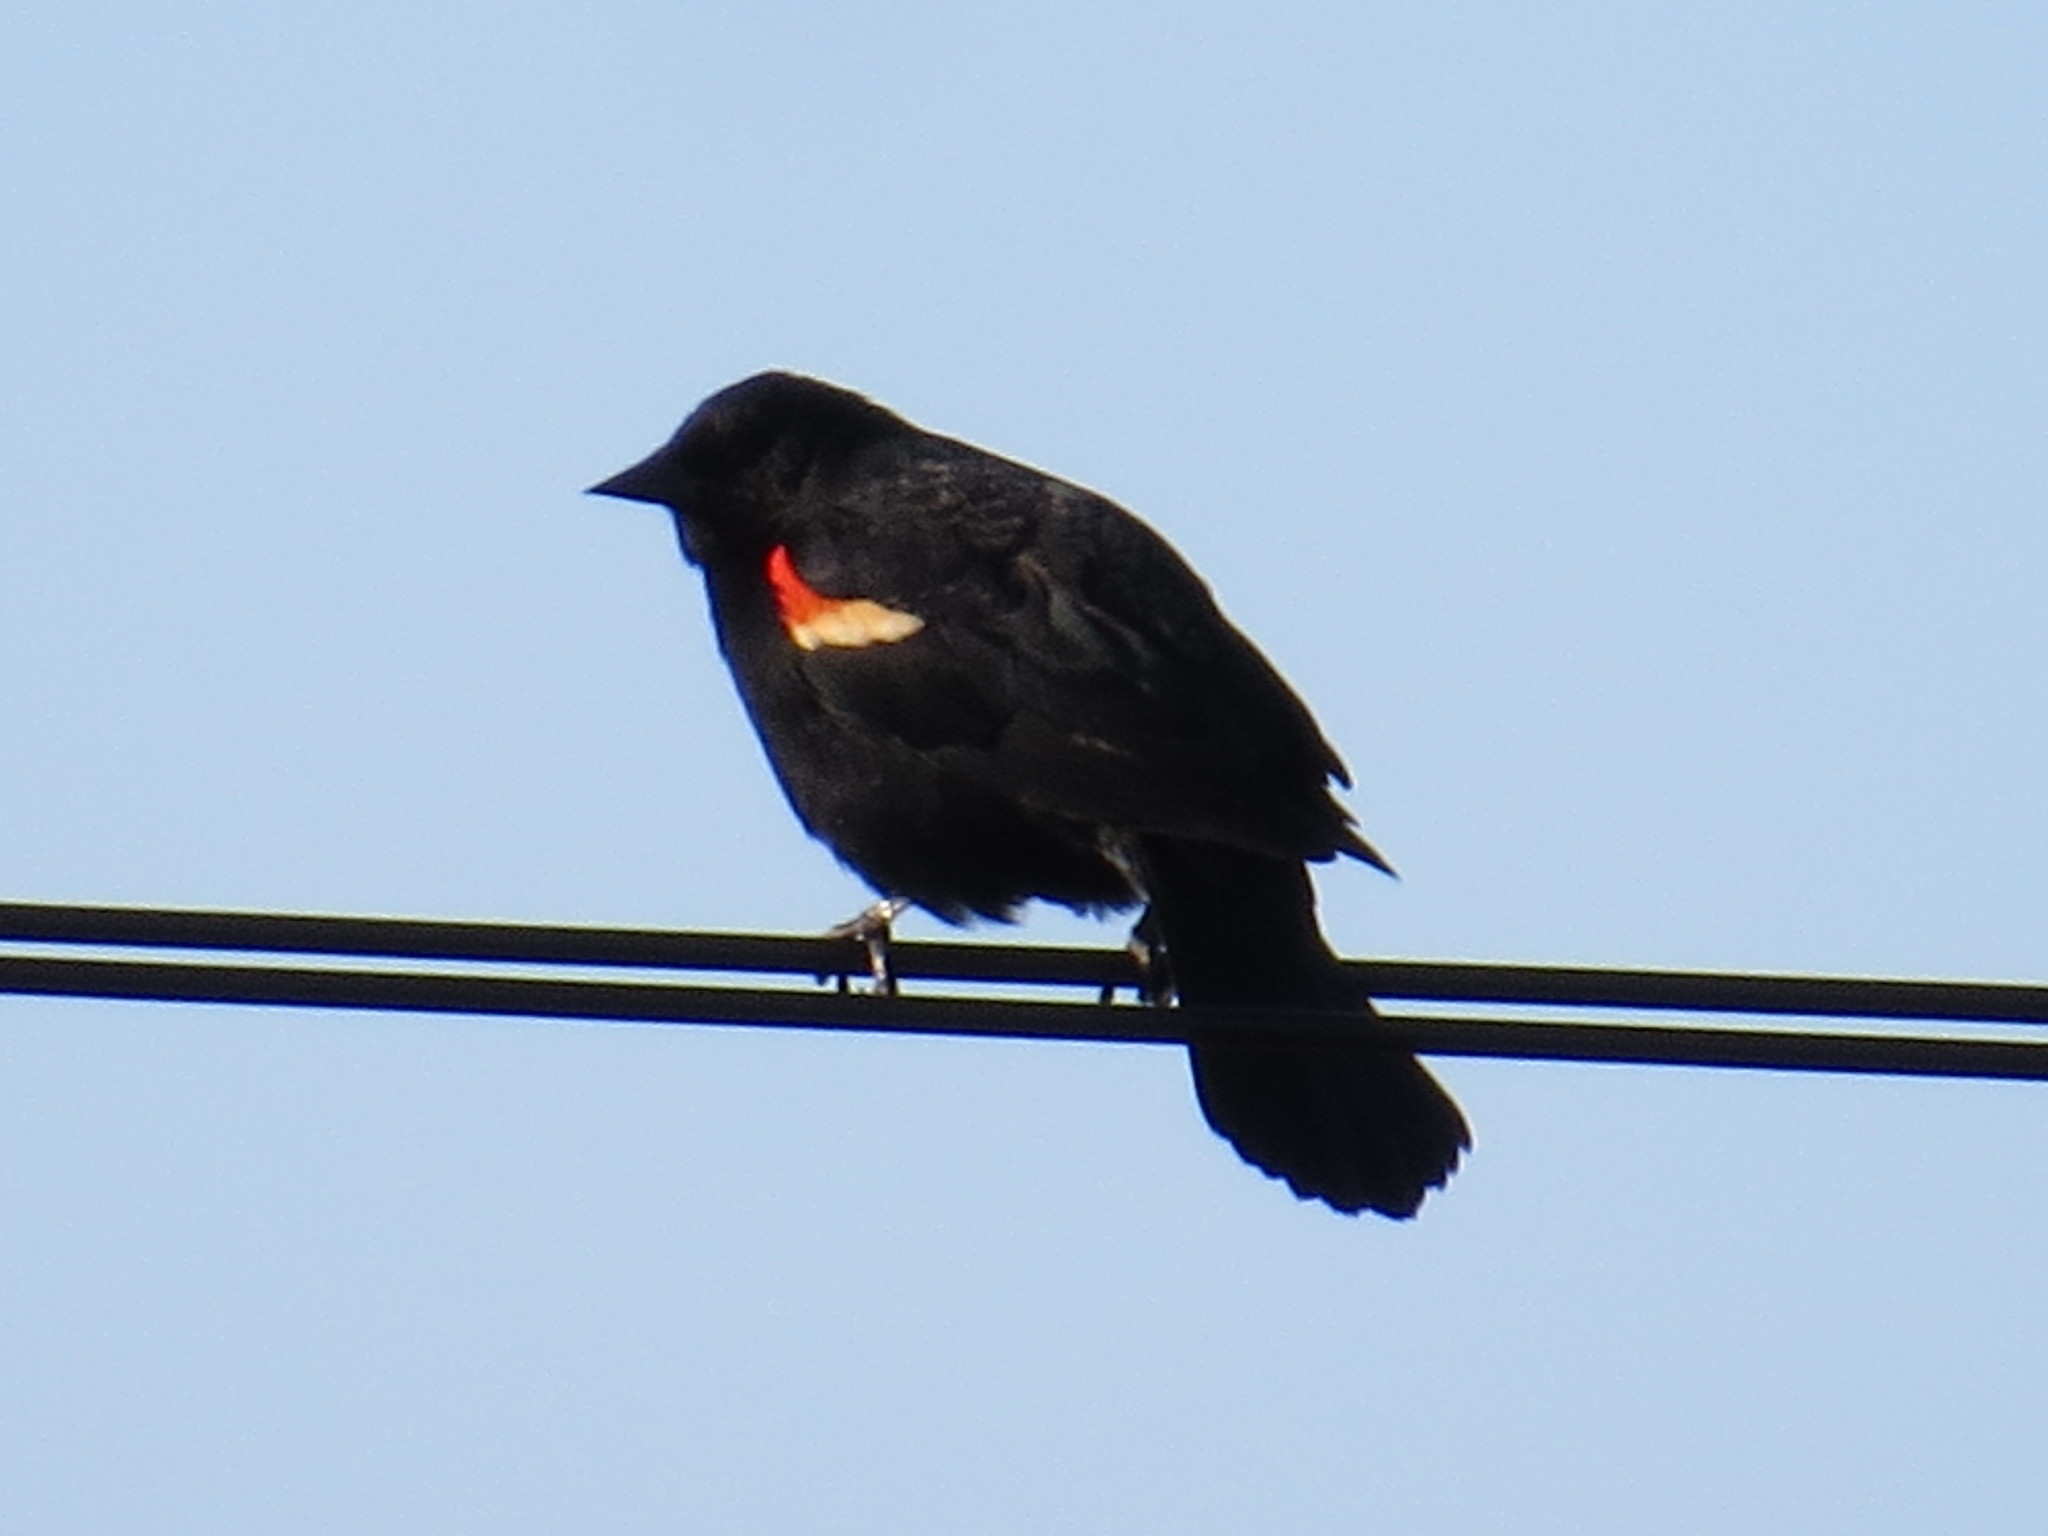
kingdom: Animalia
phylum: Chordata
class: Aves
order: Passeriformes
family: Icteridae
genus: Agelaius
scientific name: Agelaius phoeniceus
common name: Red-winged blackbird
